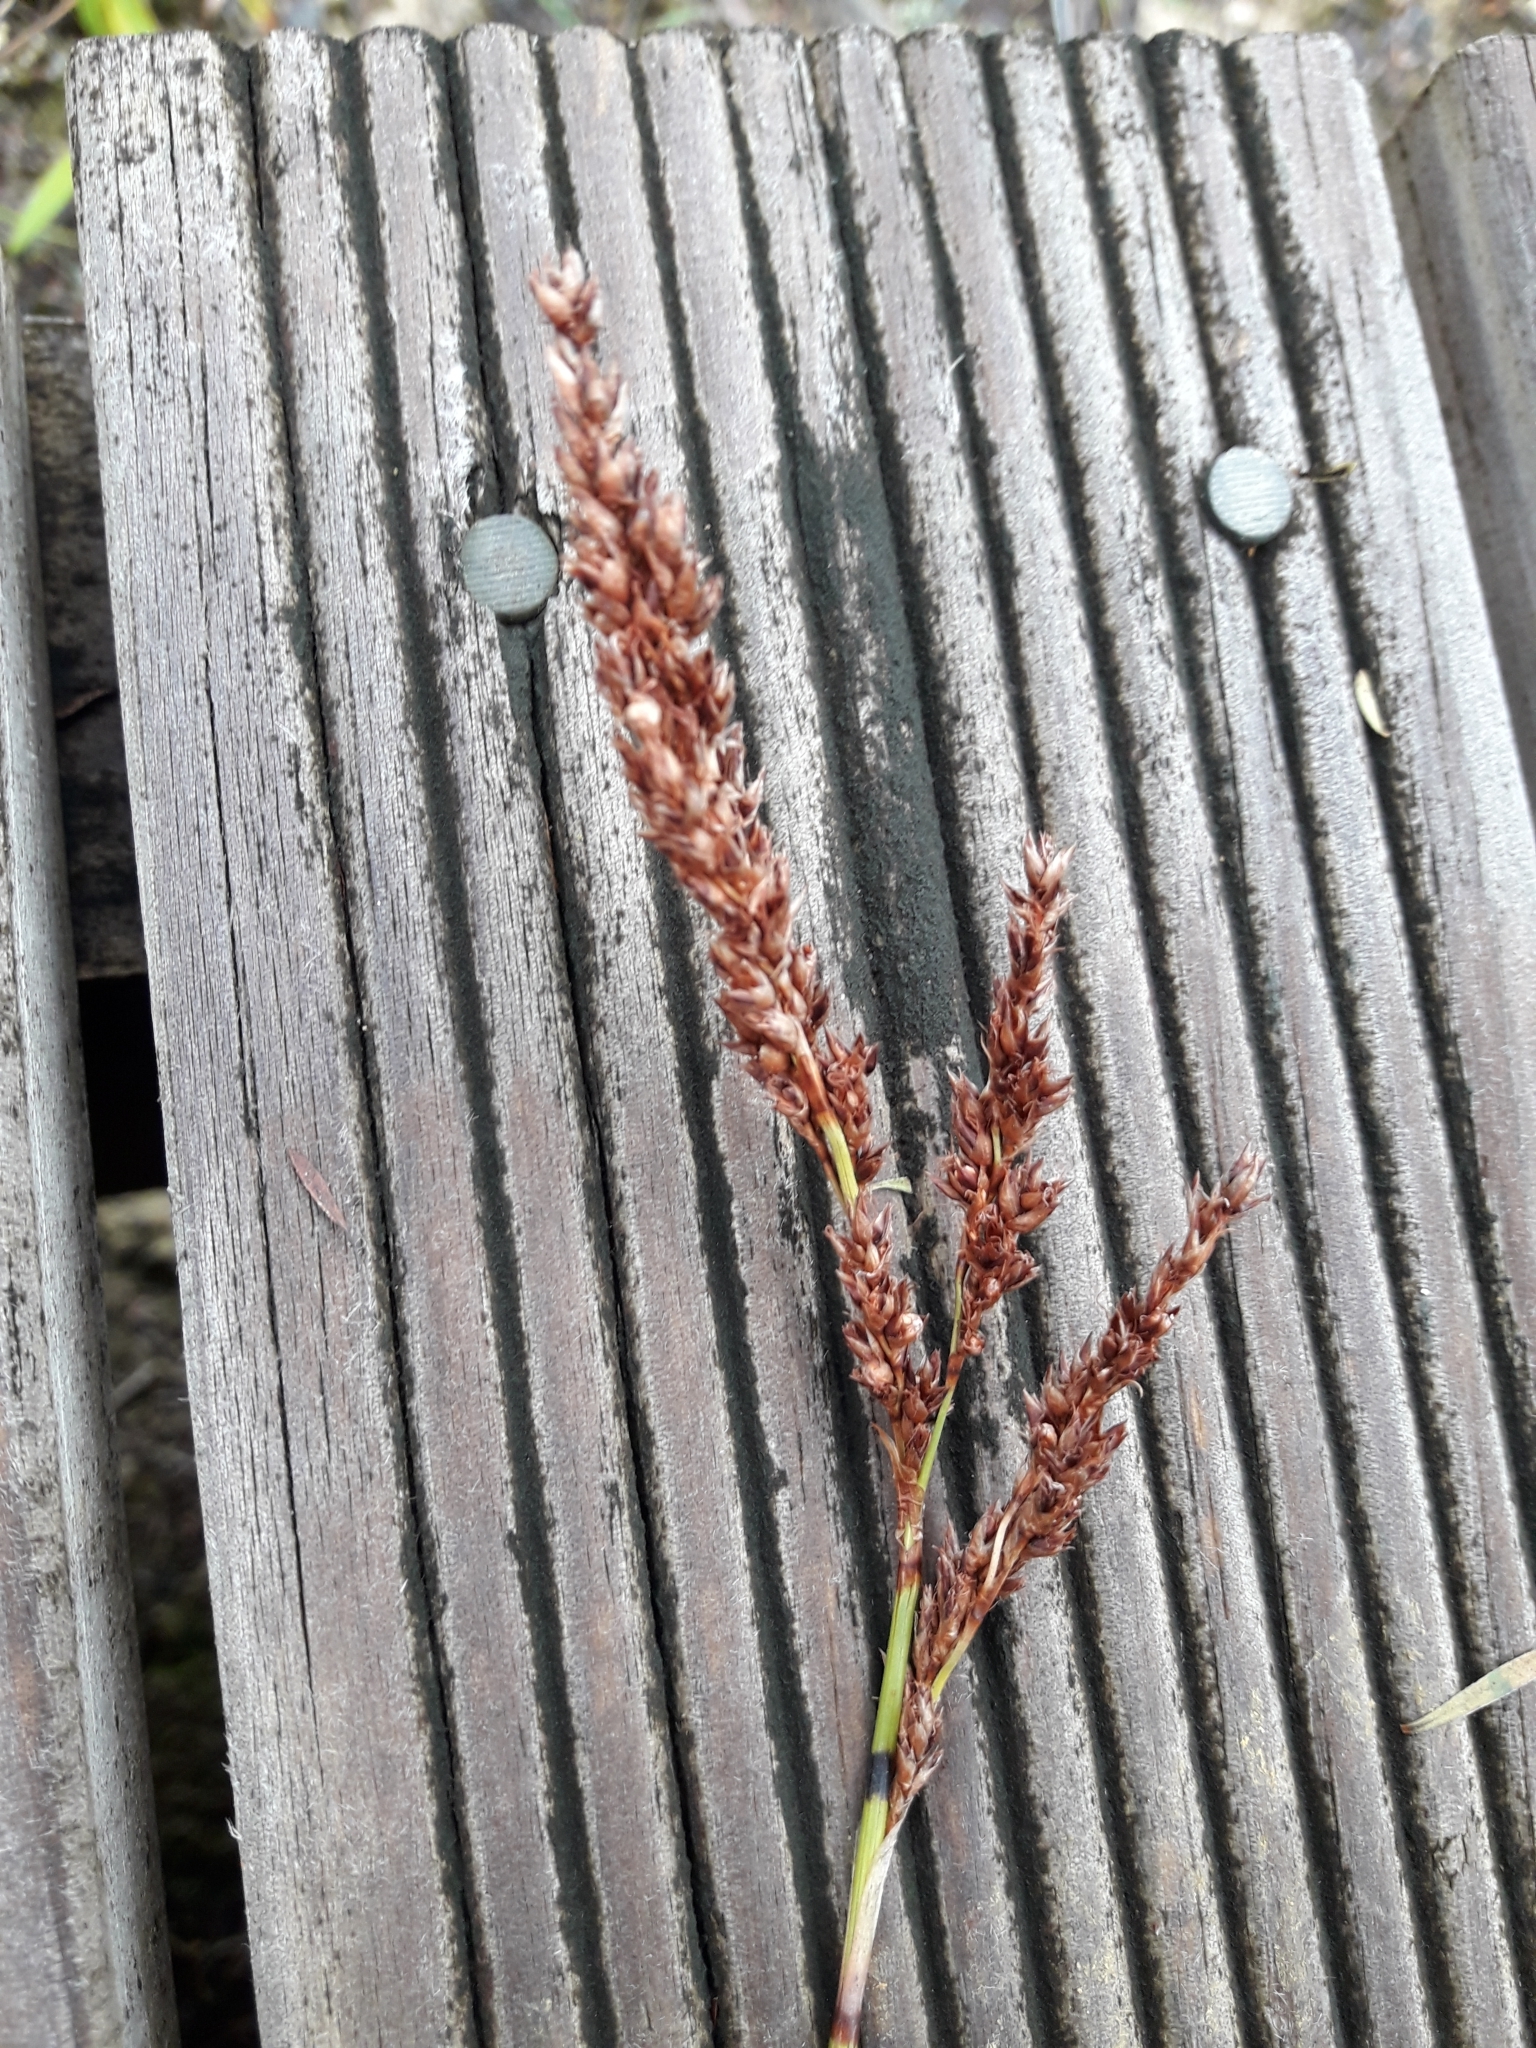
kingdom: Plantae
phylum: Tracheophyta
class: Liliopsida
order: Poales
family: Cyperaceae
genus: Machaerina
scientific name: Machaerina teretifolia
